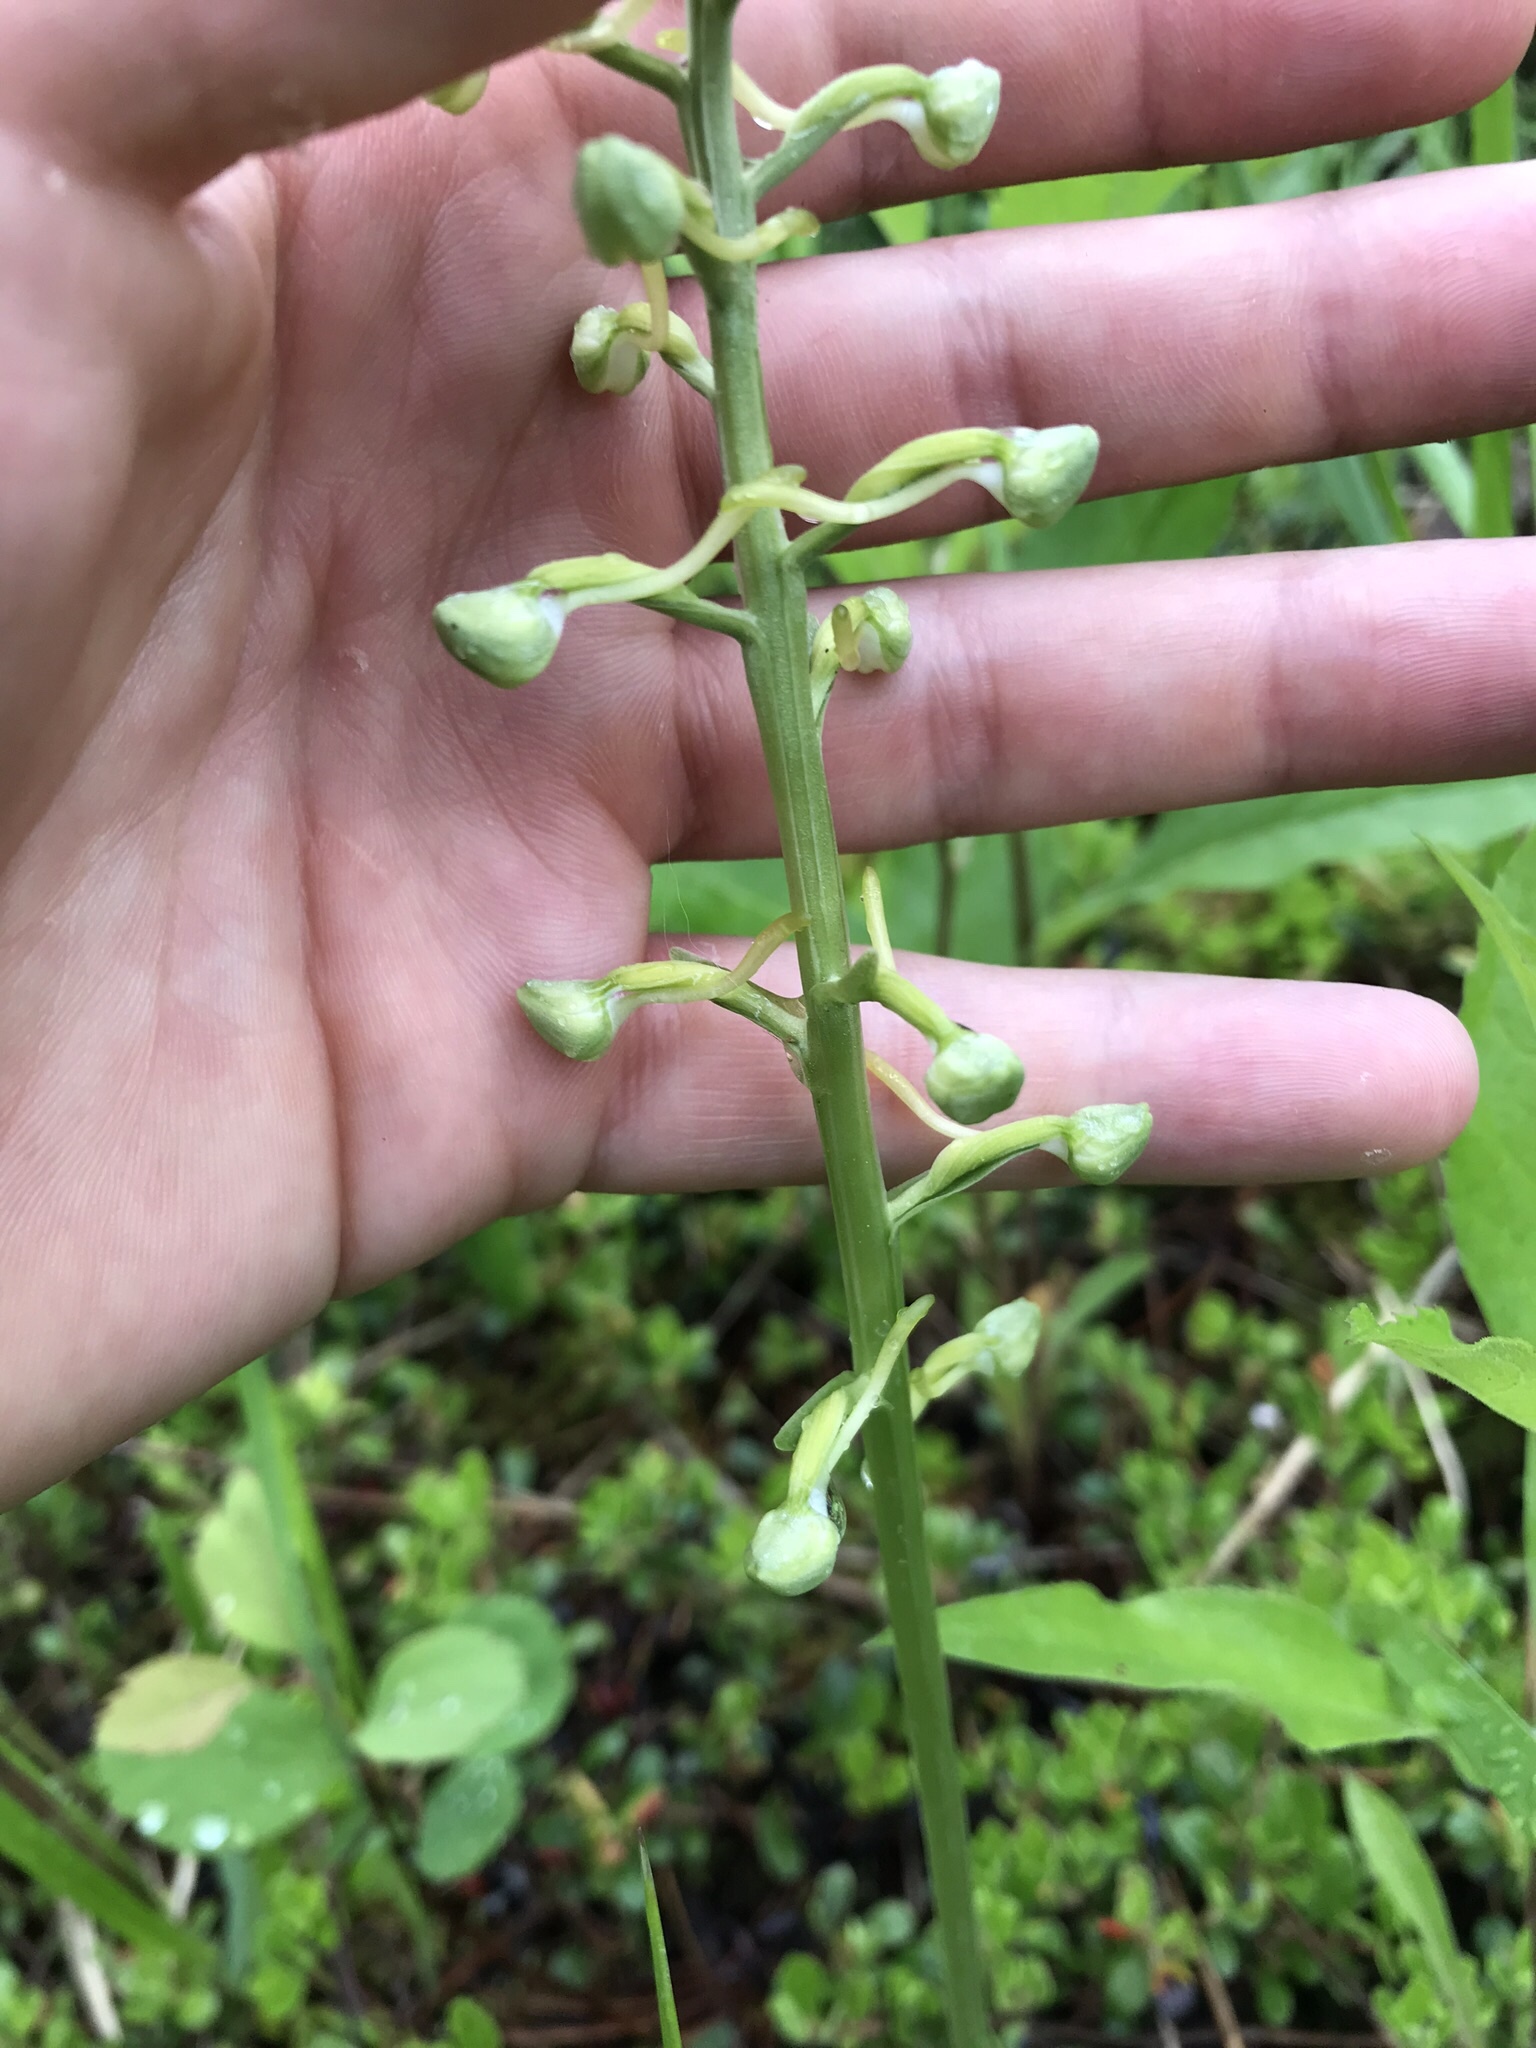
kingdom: Plantae
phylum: Tracheophyta
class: Liliopsida
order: Asparagales
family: Orchidaceae
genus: Platanthera
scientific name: Platanthera orbiculata
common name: Large round-leaved orchid
